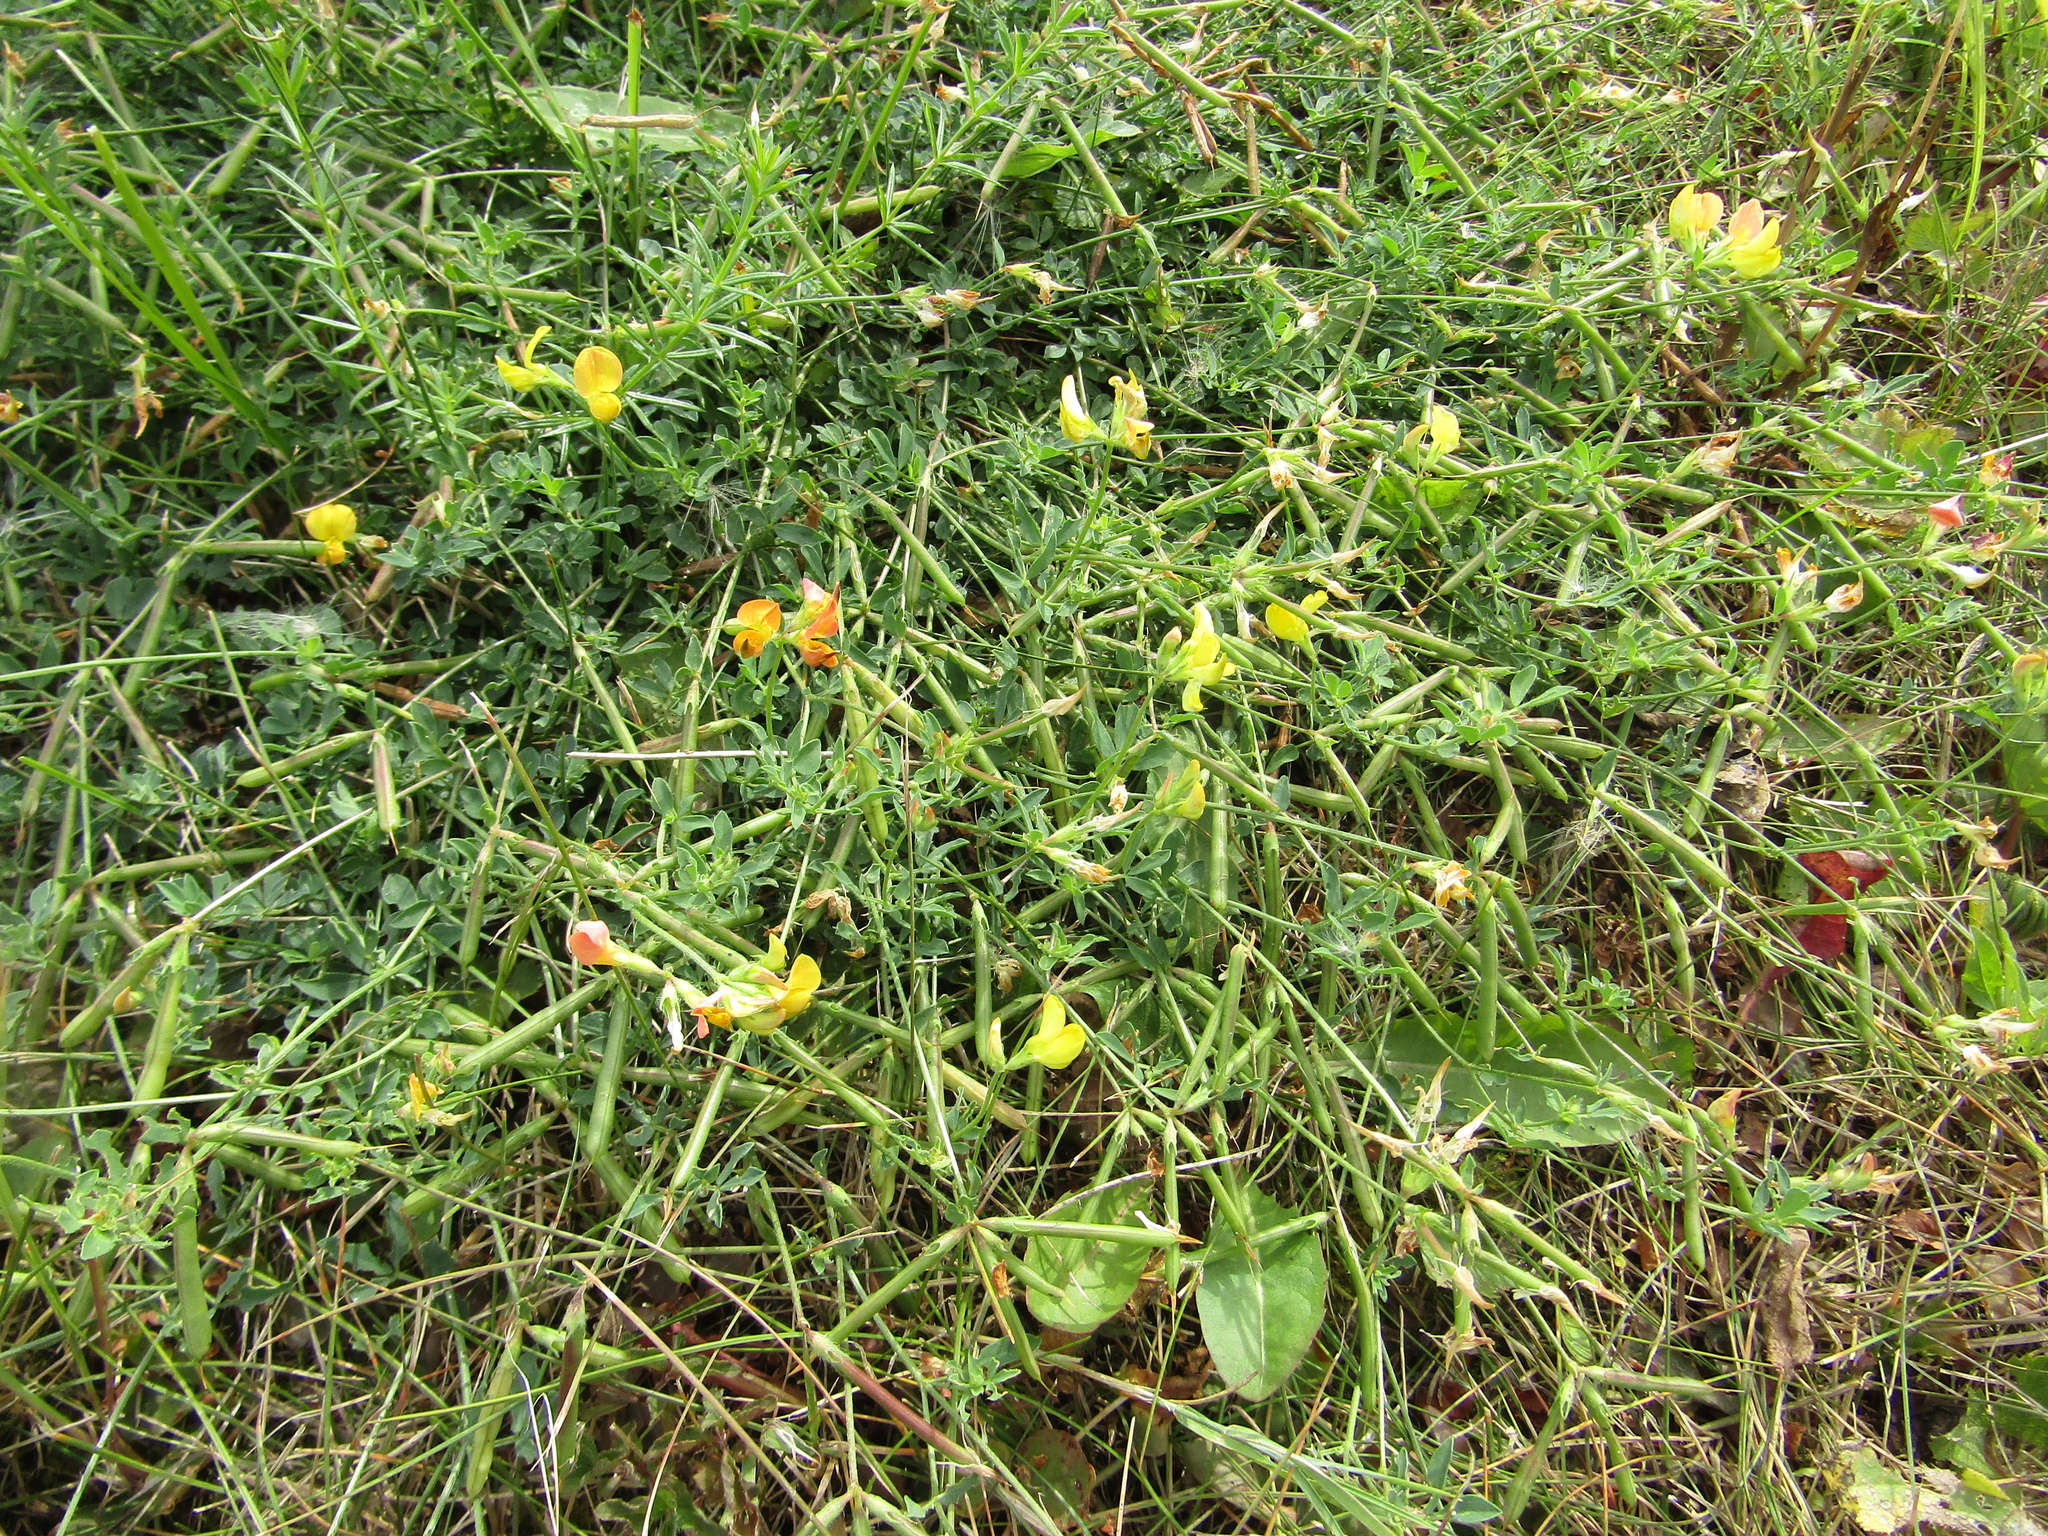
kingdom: Plantae
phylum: Tracheophyta
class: Magnoliopsida
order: Fabales
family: Fabaceae
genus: Lotus
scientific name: Lotus corniculatus
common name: Common bird's-foot-trefoil
